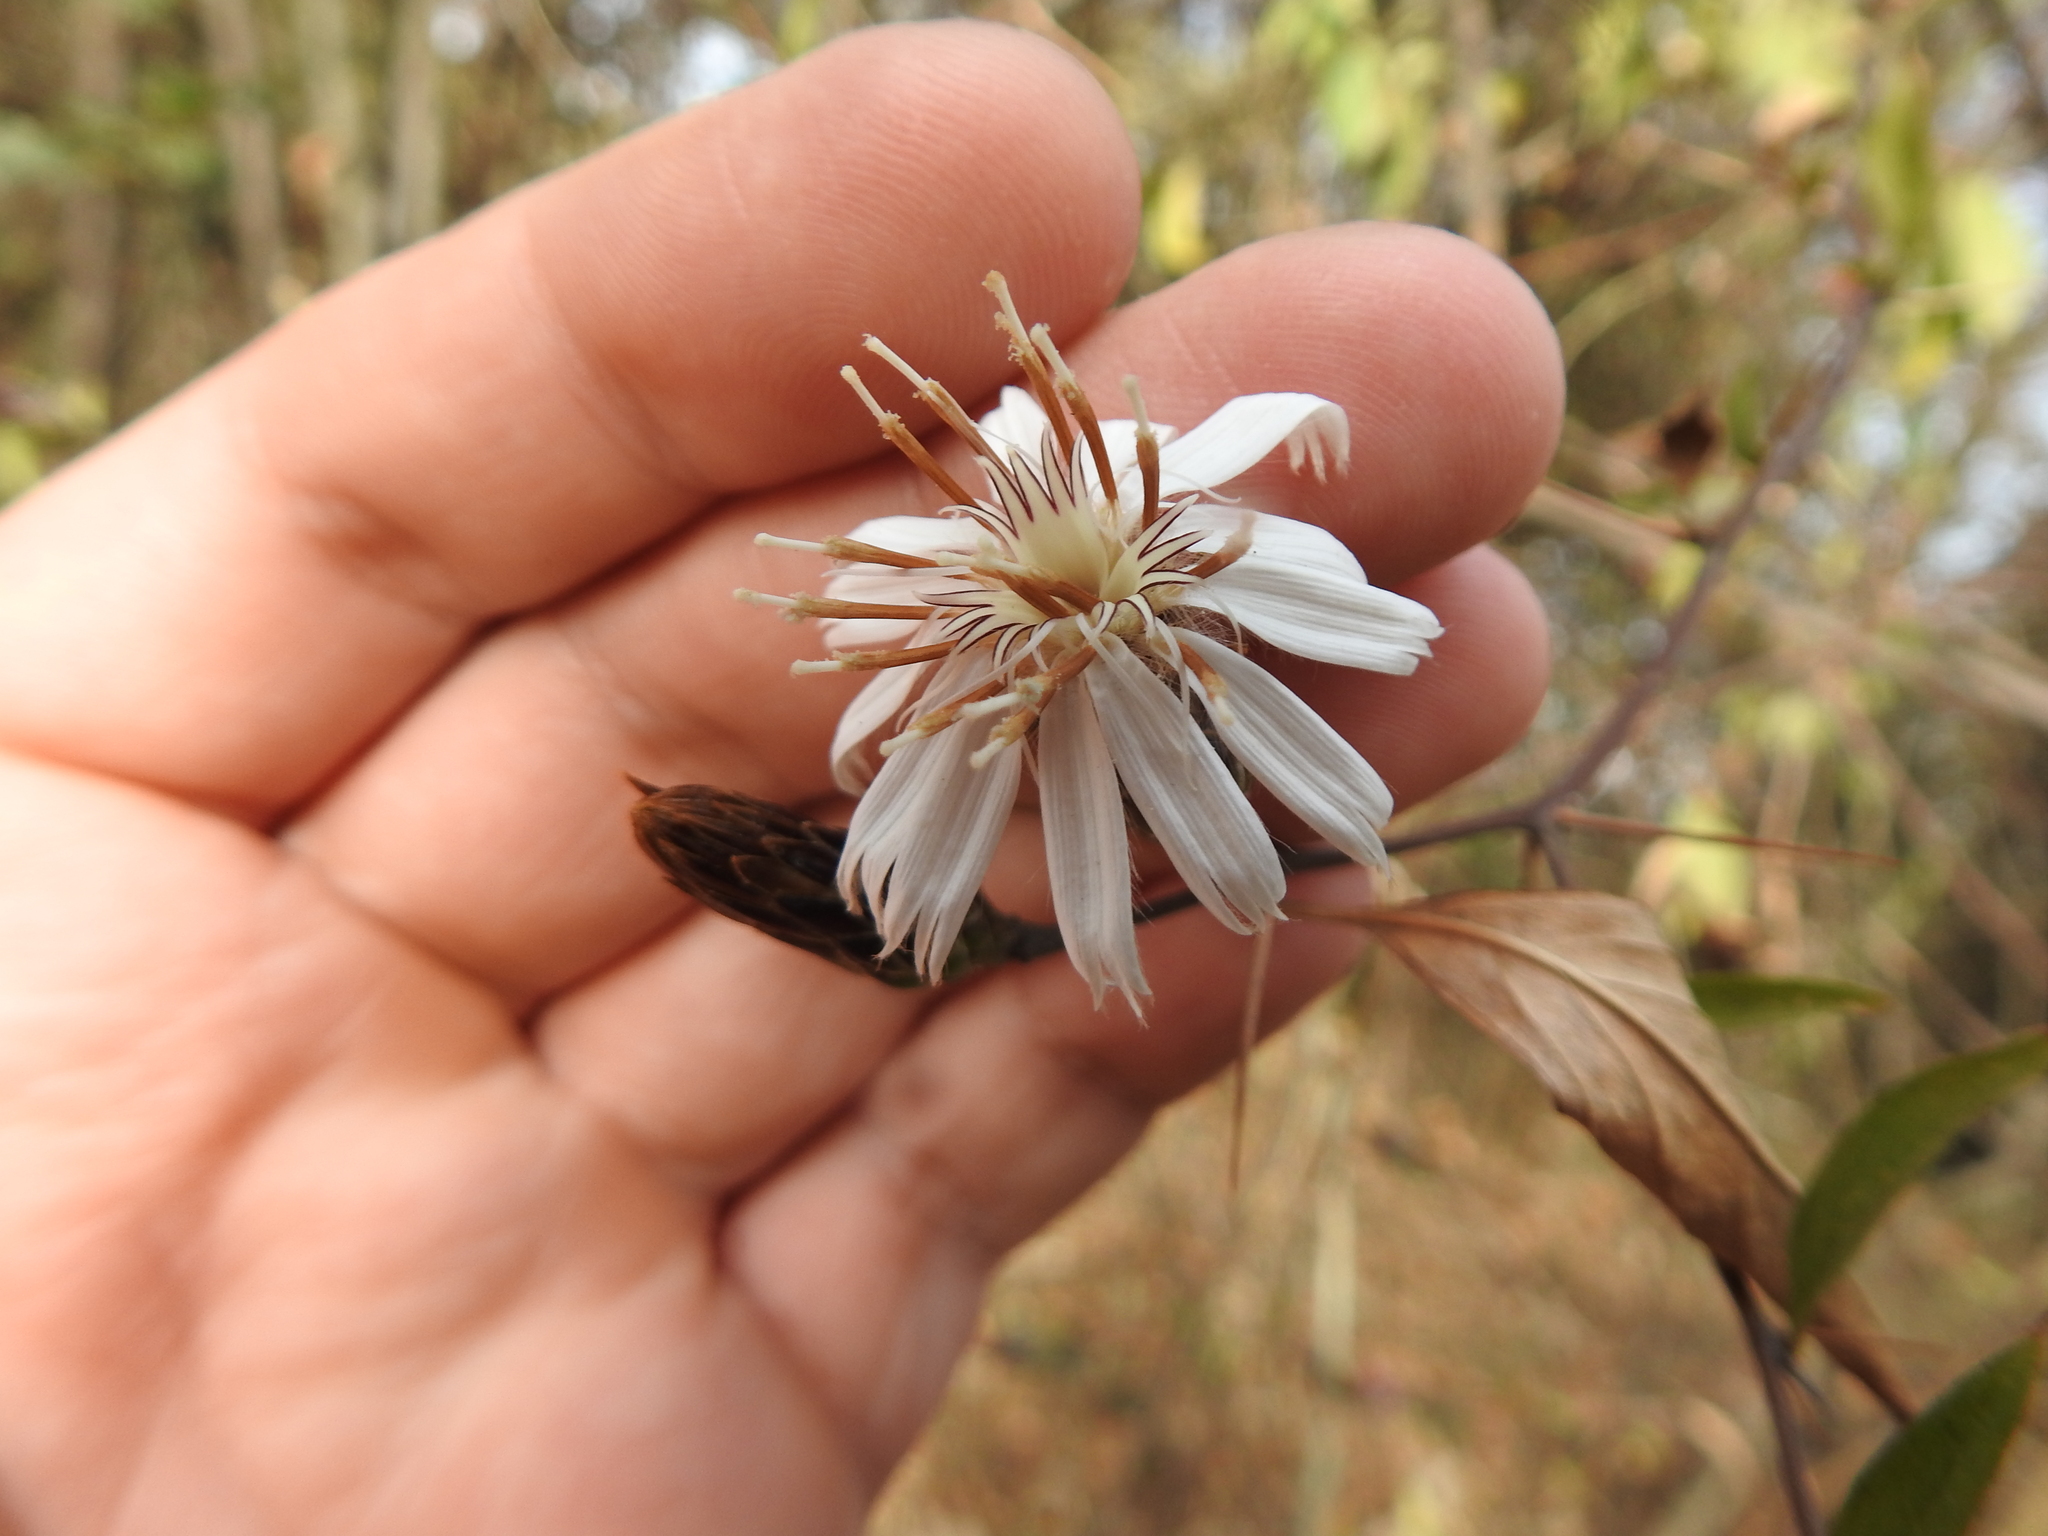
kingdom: Plantae
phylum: Tracheophyta
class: Magnoliopsida
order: Asterales
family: Asteraceae
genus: Barnadesia
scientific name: Barnadesia odorata
